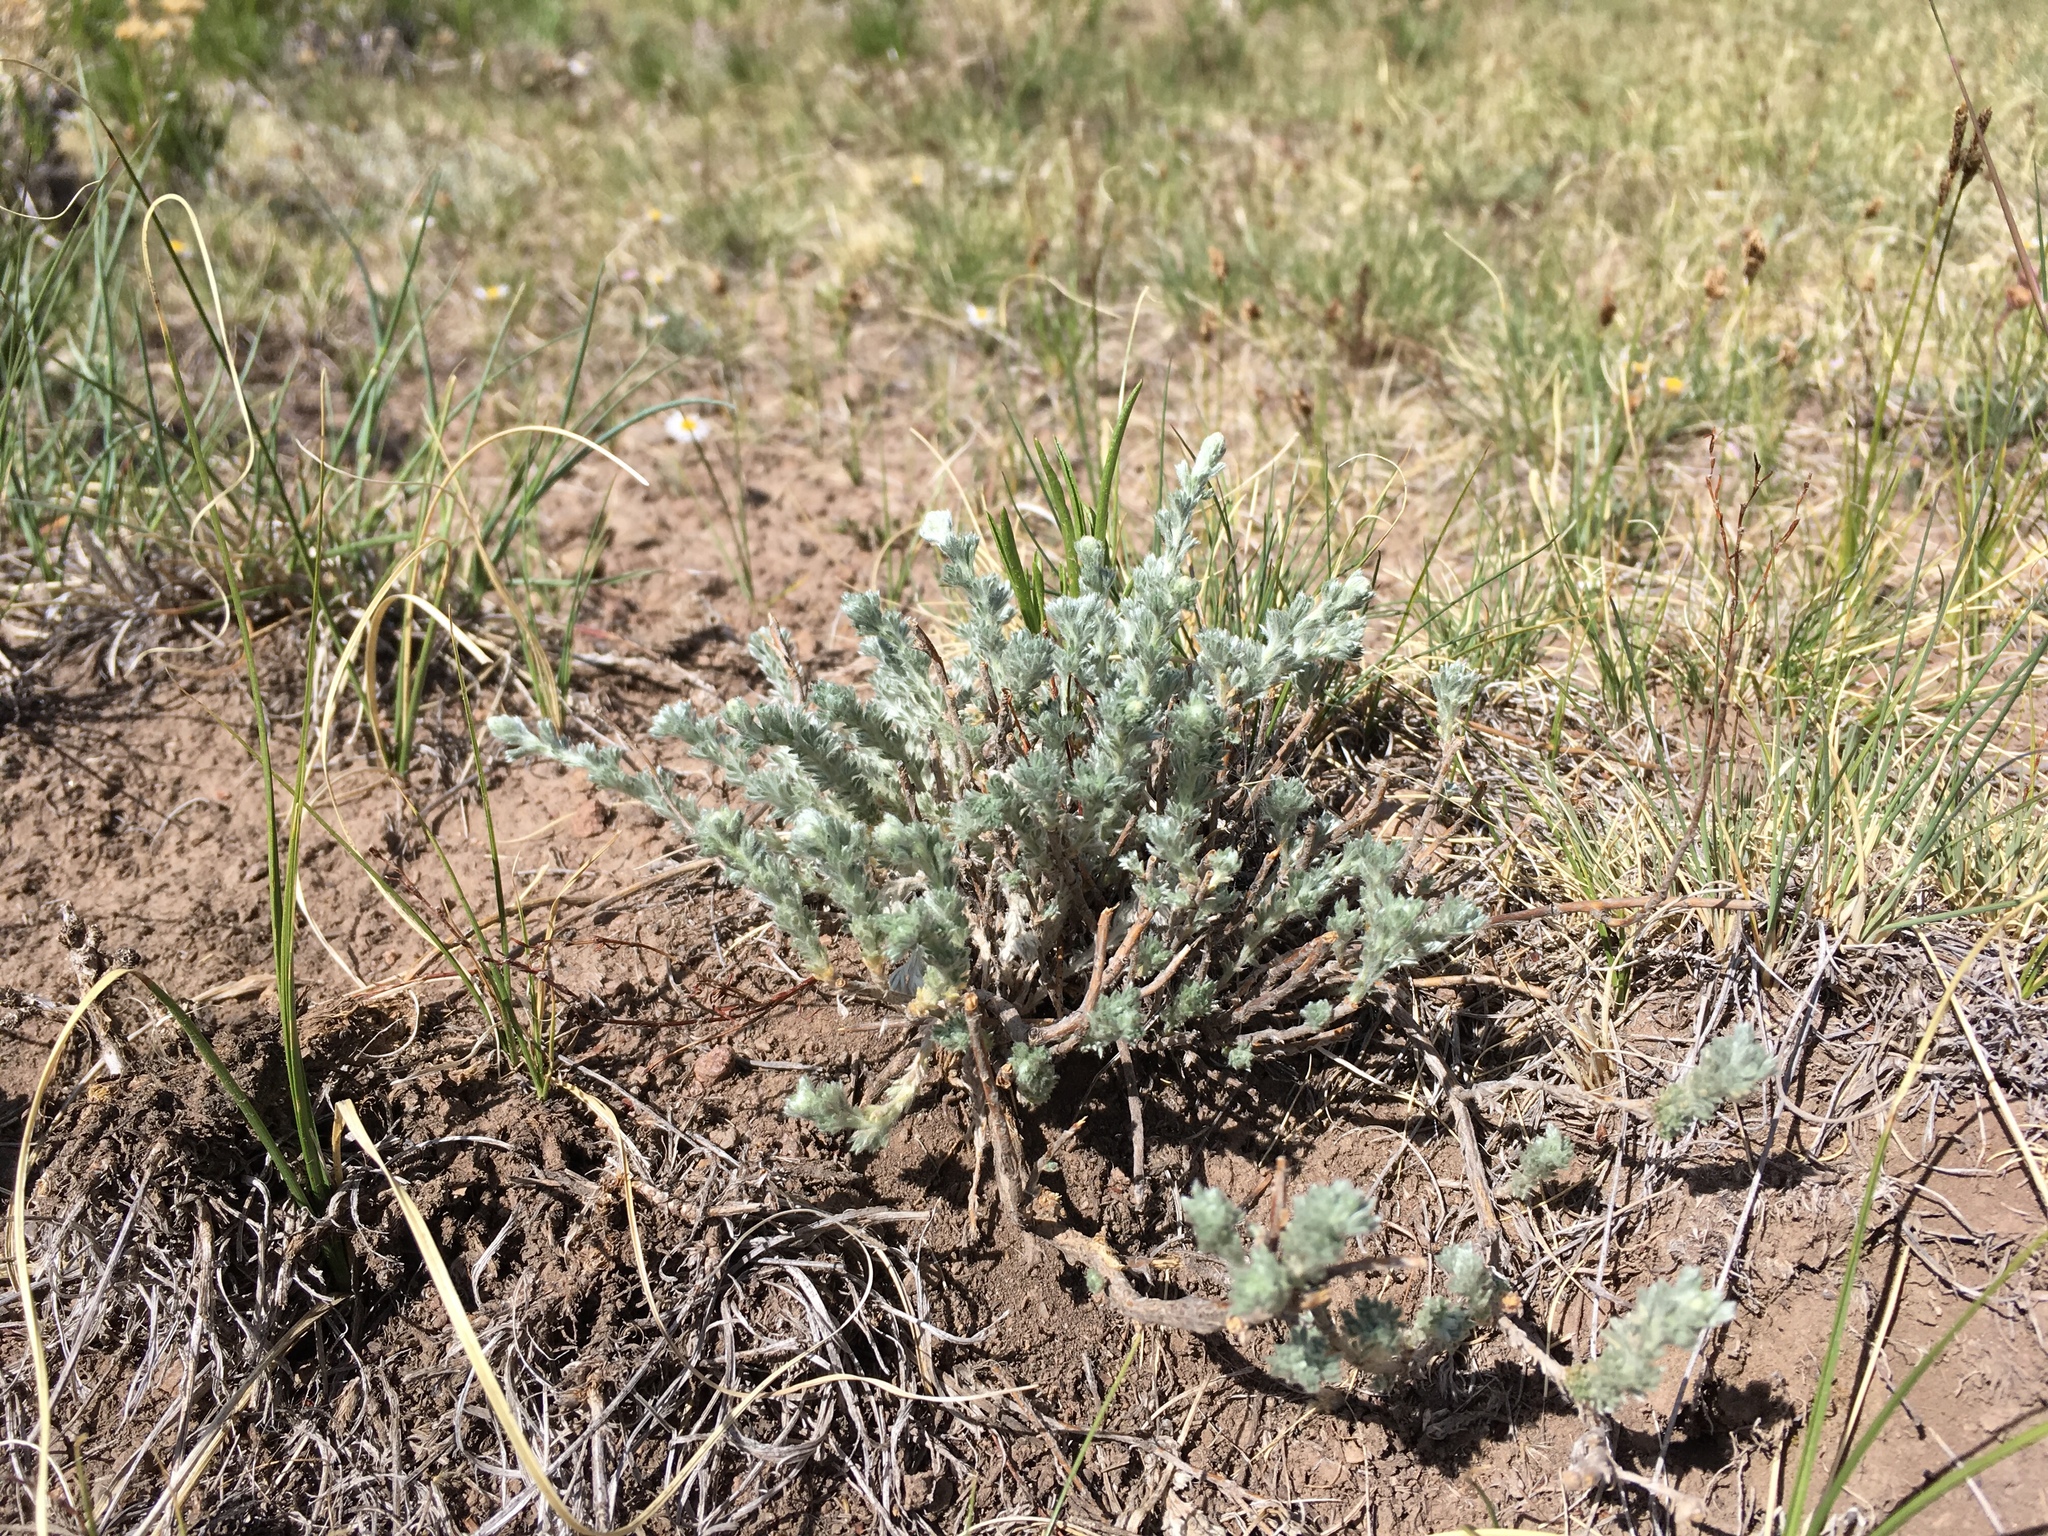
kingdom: Plantae
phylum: Tracheophyta
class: Magnoliopsida
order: Asterales
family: Asteraceae
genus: Artemisia
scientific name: Artemisia frigida
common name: Prairie sagewort
